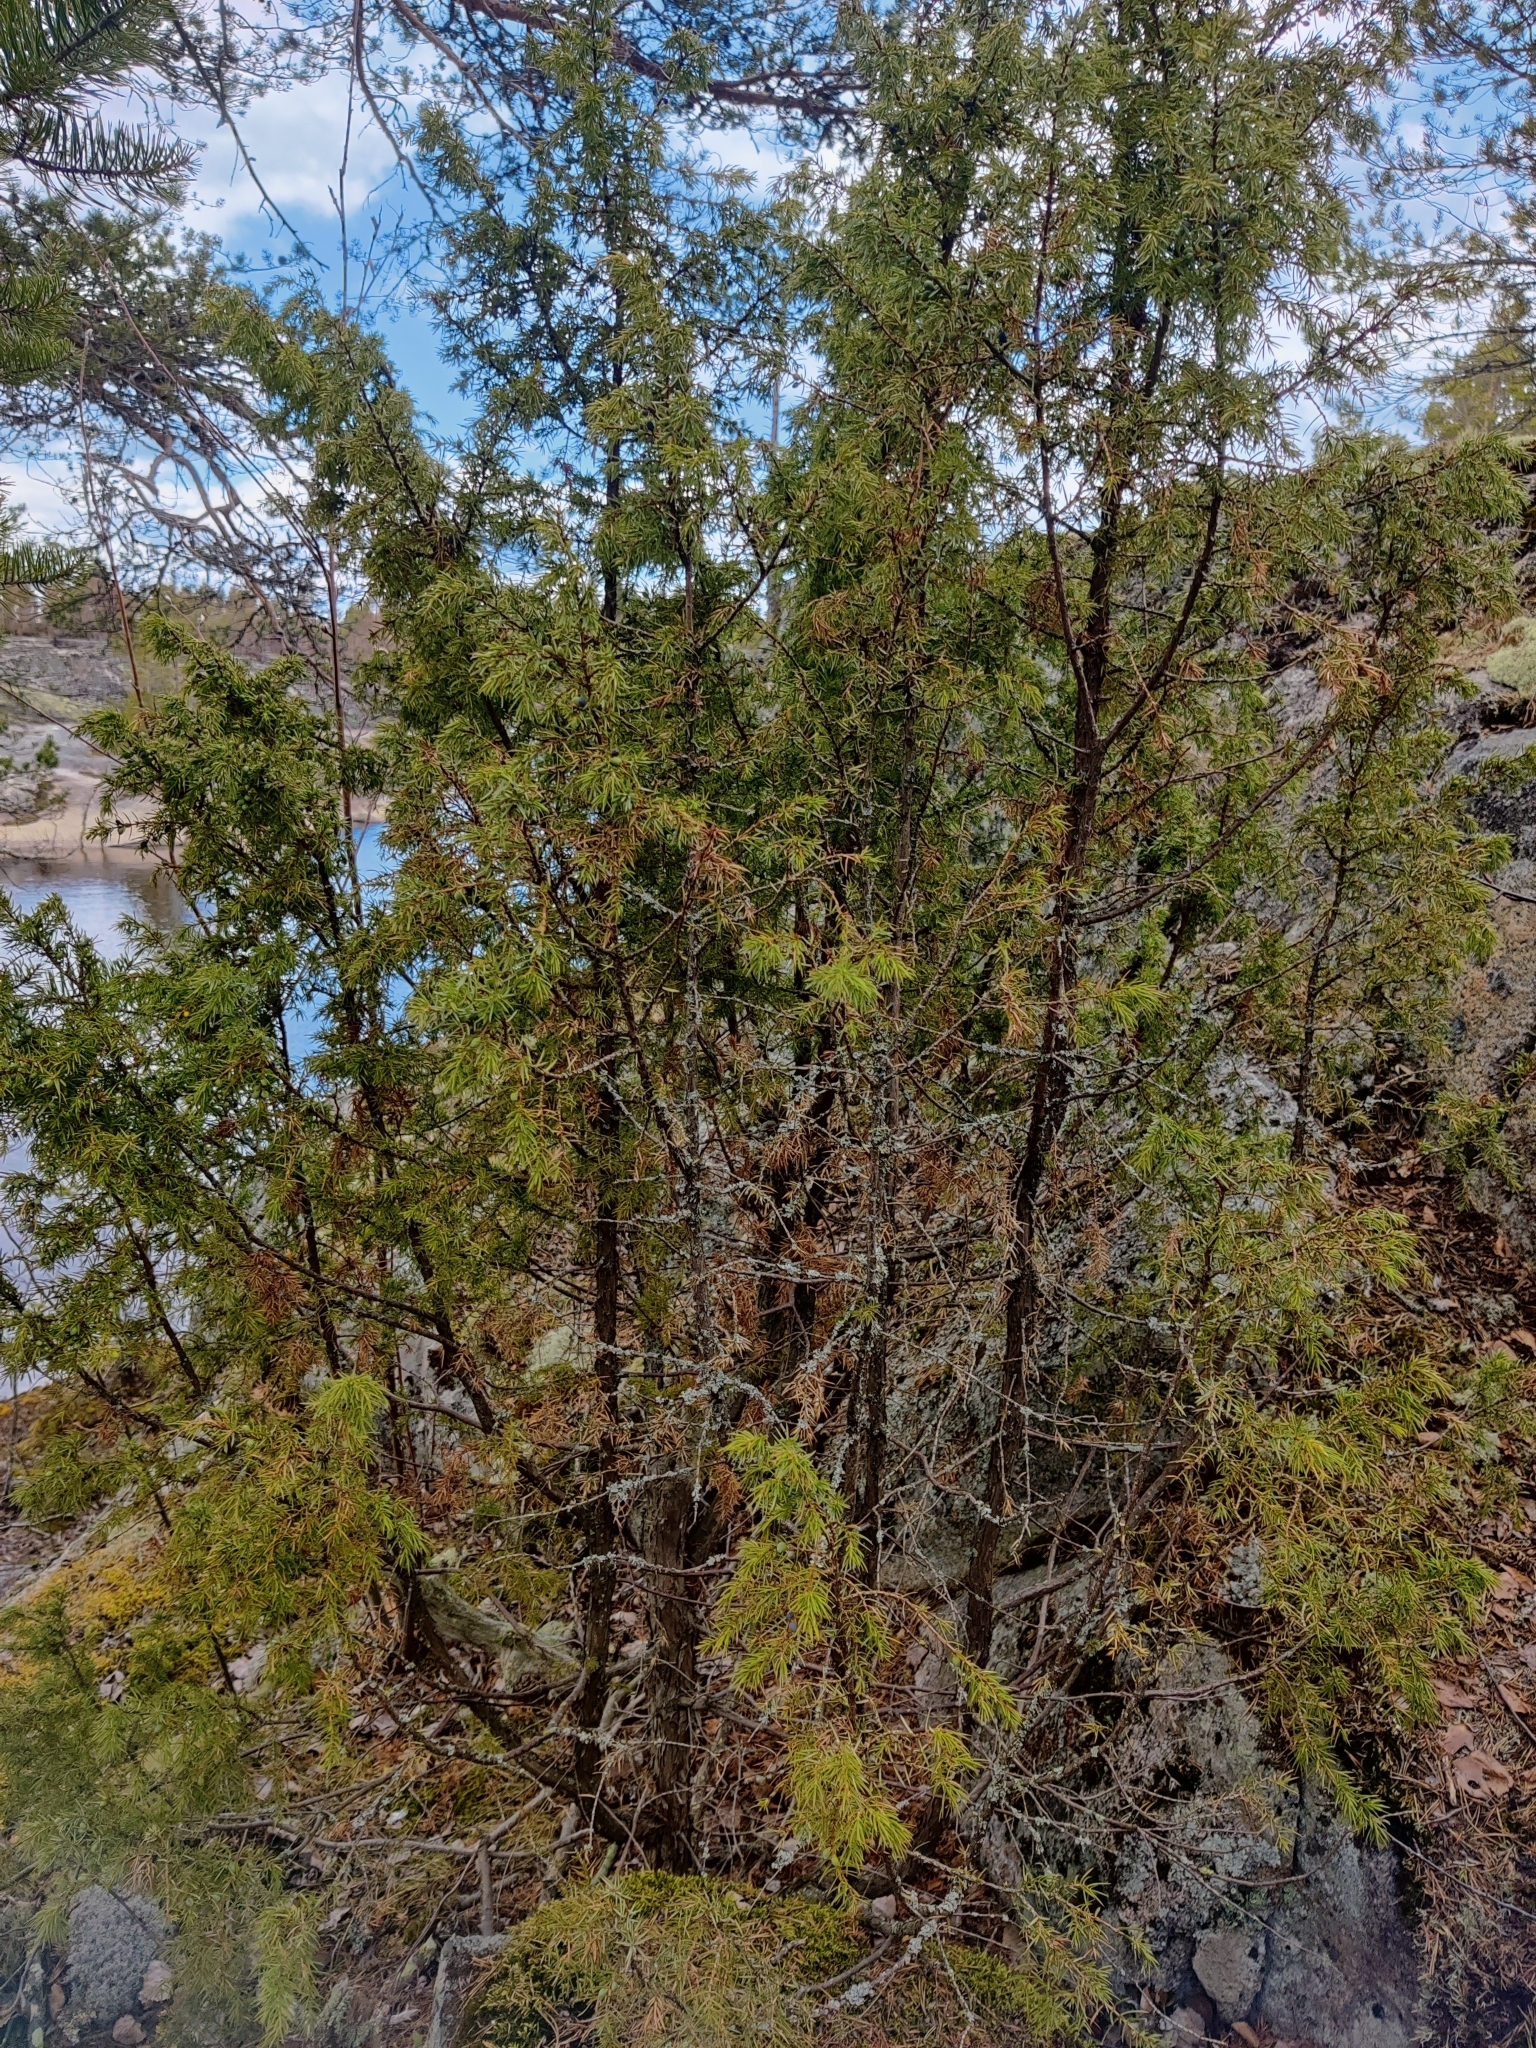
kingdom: Plantae
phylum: Tracheophyta
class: Pinopsida
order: Pinales
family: Cupressaceae
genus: Juniperus
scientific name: Juniperus communis
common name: Common juniper
